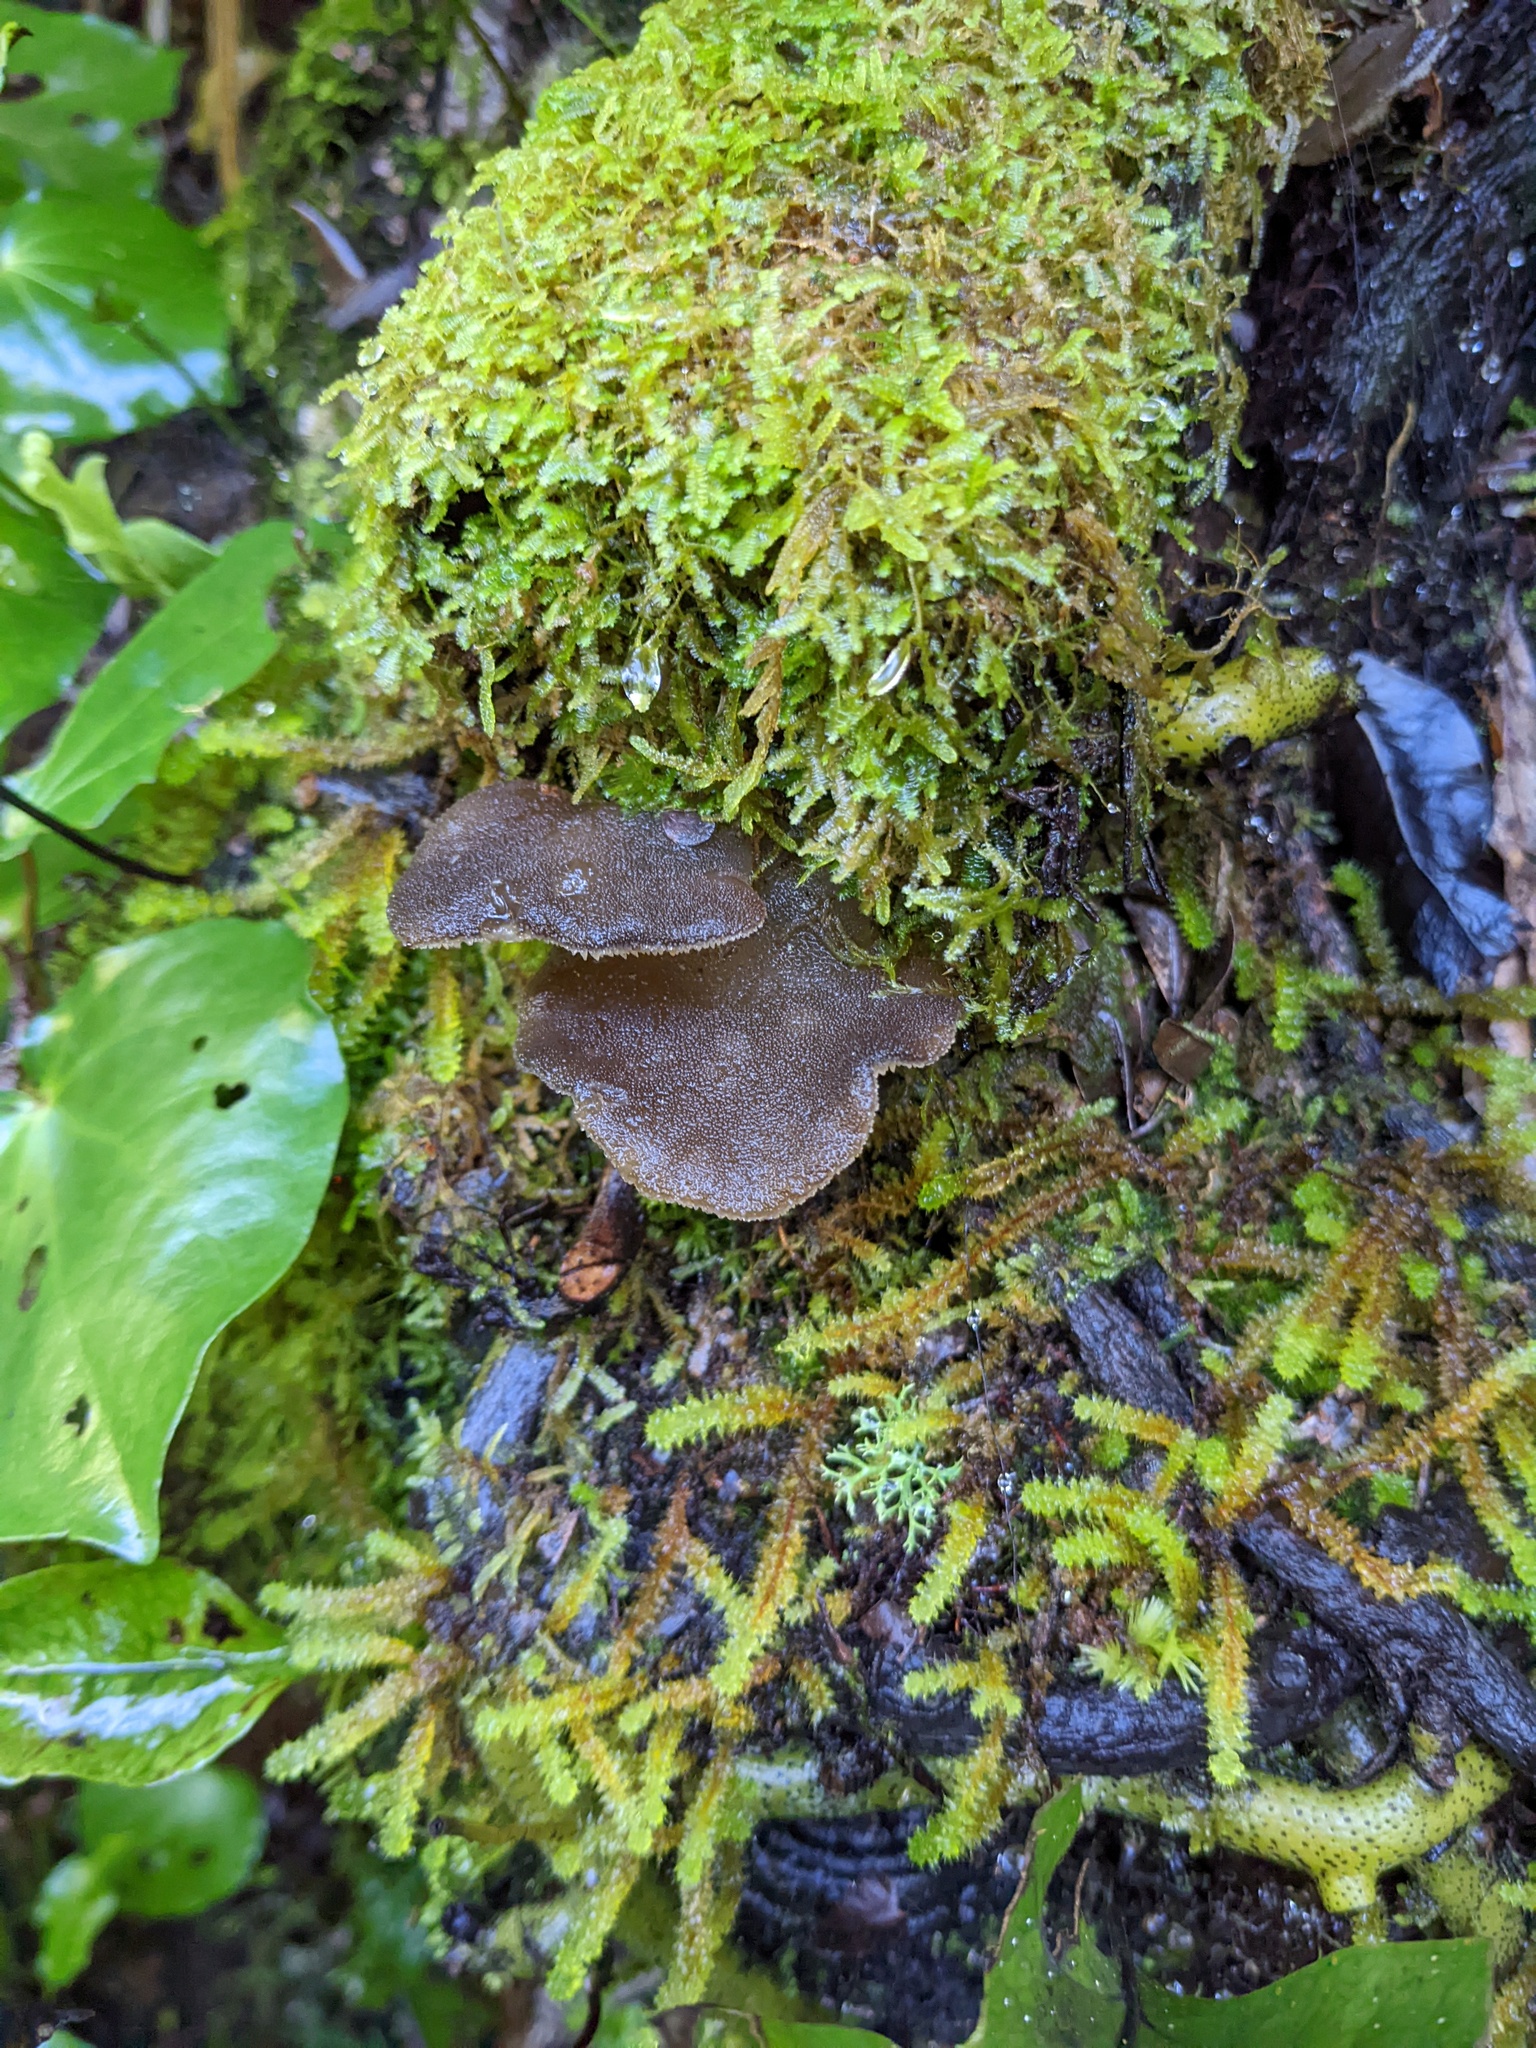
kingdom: Fungi
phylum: Basidiomycota
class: Agaricomycetes
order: Auriculariales
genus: Pseudohydnum
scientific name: Pseudohydnum orbiculare
